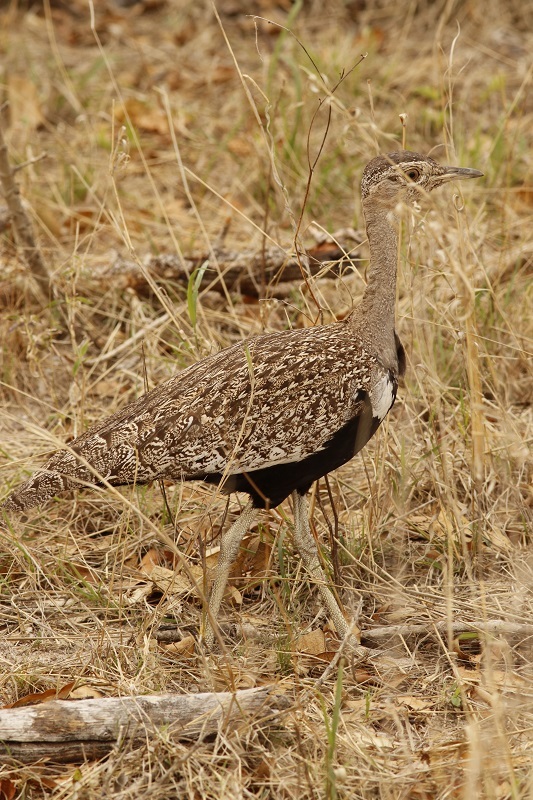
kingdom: Animalia
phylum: Chordata
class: Aves
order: Otidiformes
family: Otididae
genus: Lophotis
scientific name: Lophotis ruficrista
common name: Red-crested korhaan
